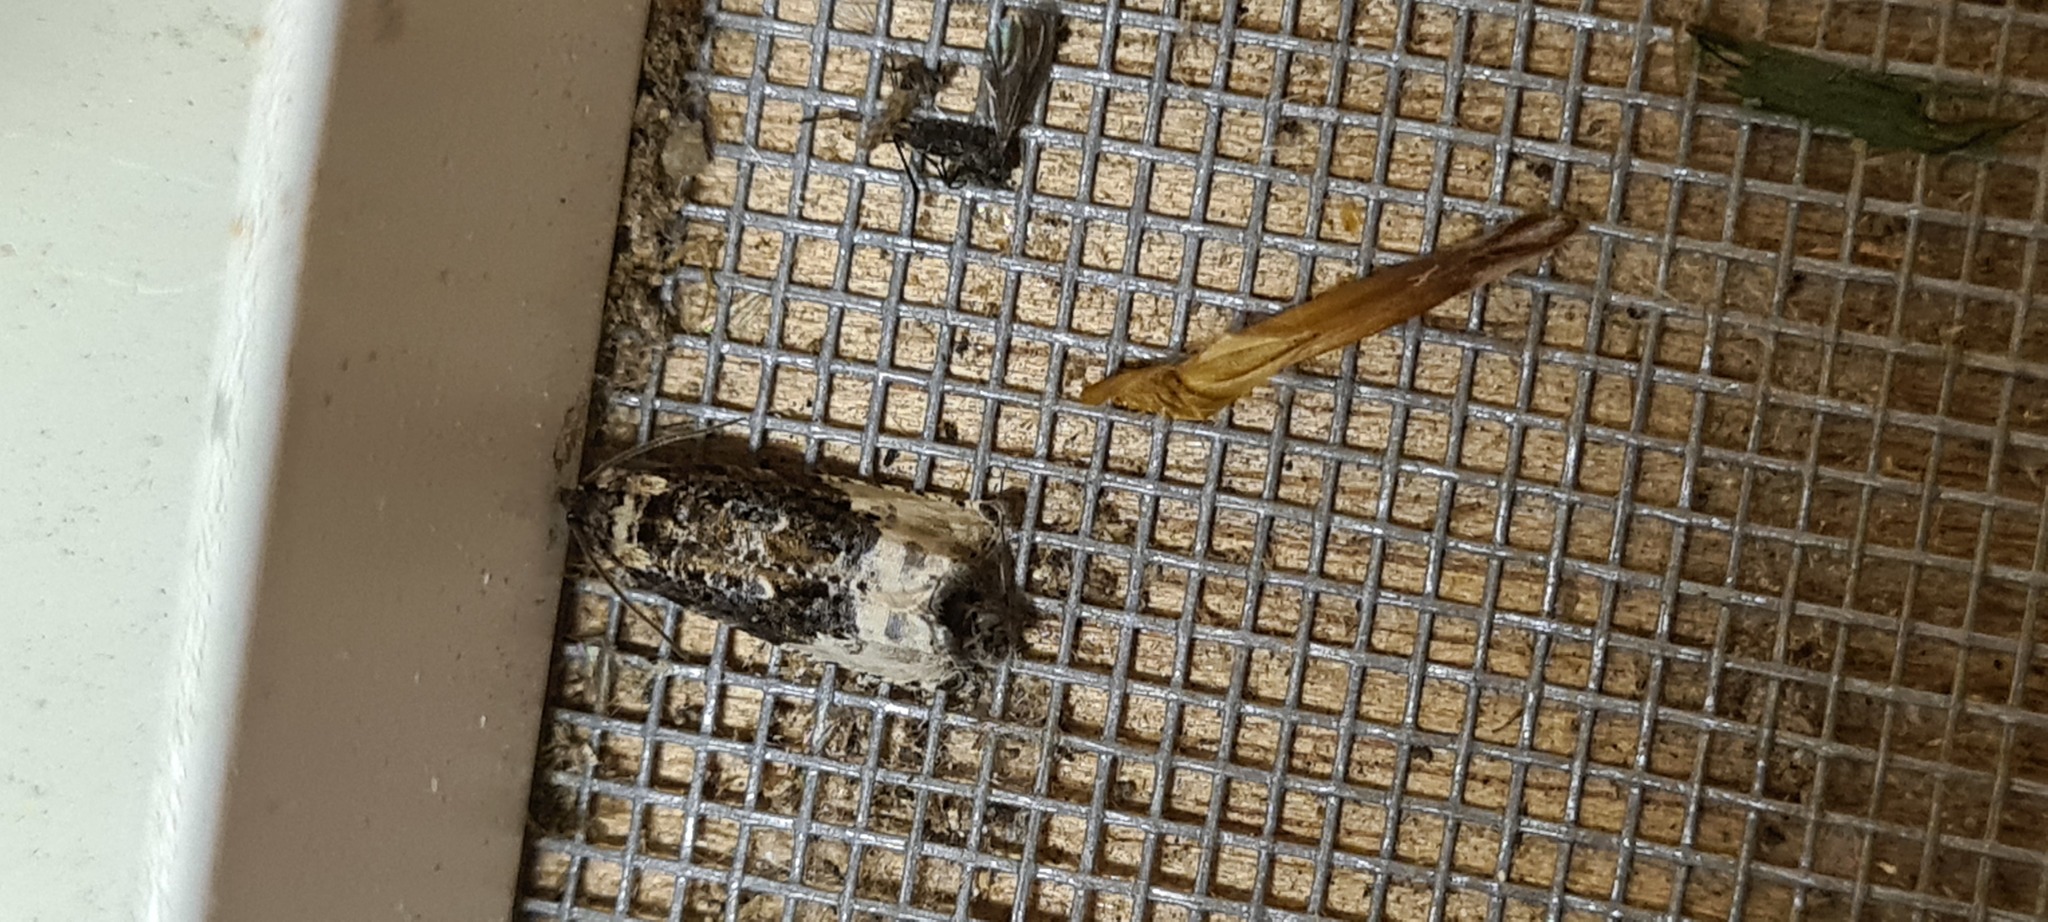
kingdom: Animalia
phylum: Arthropoda
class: Insecta
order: Lepidoptera
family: Tortricidae
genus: Hedya
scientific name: Hedya nubiferana
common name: Marbled orchard tortrix
